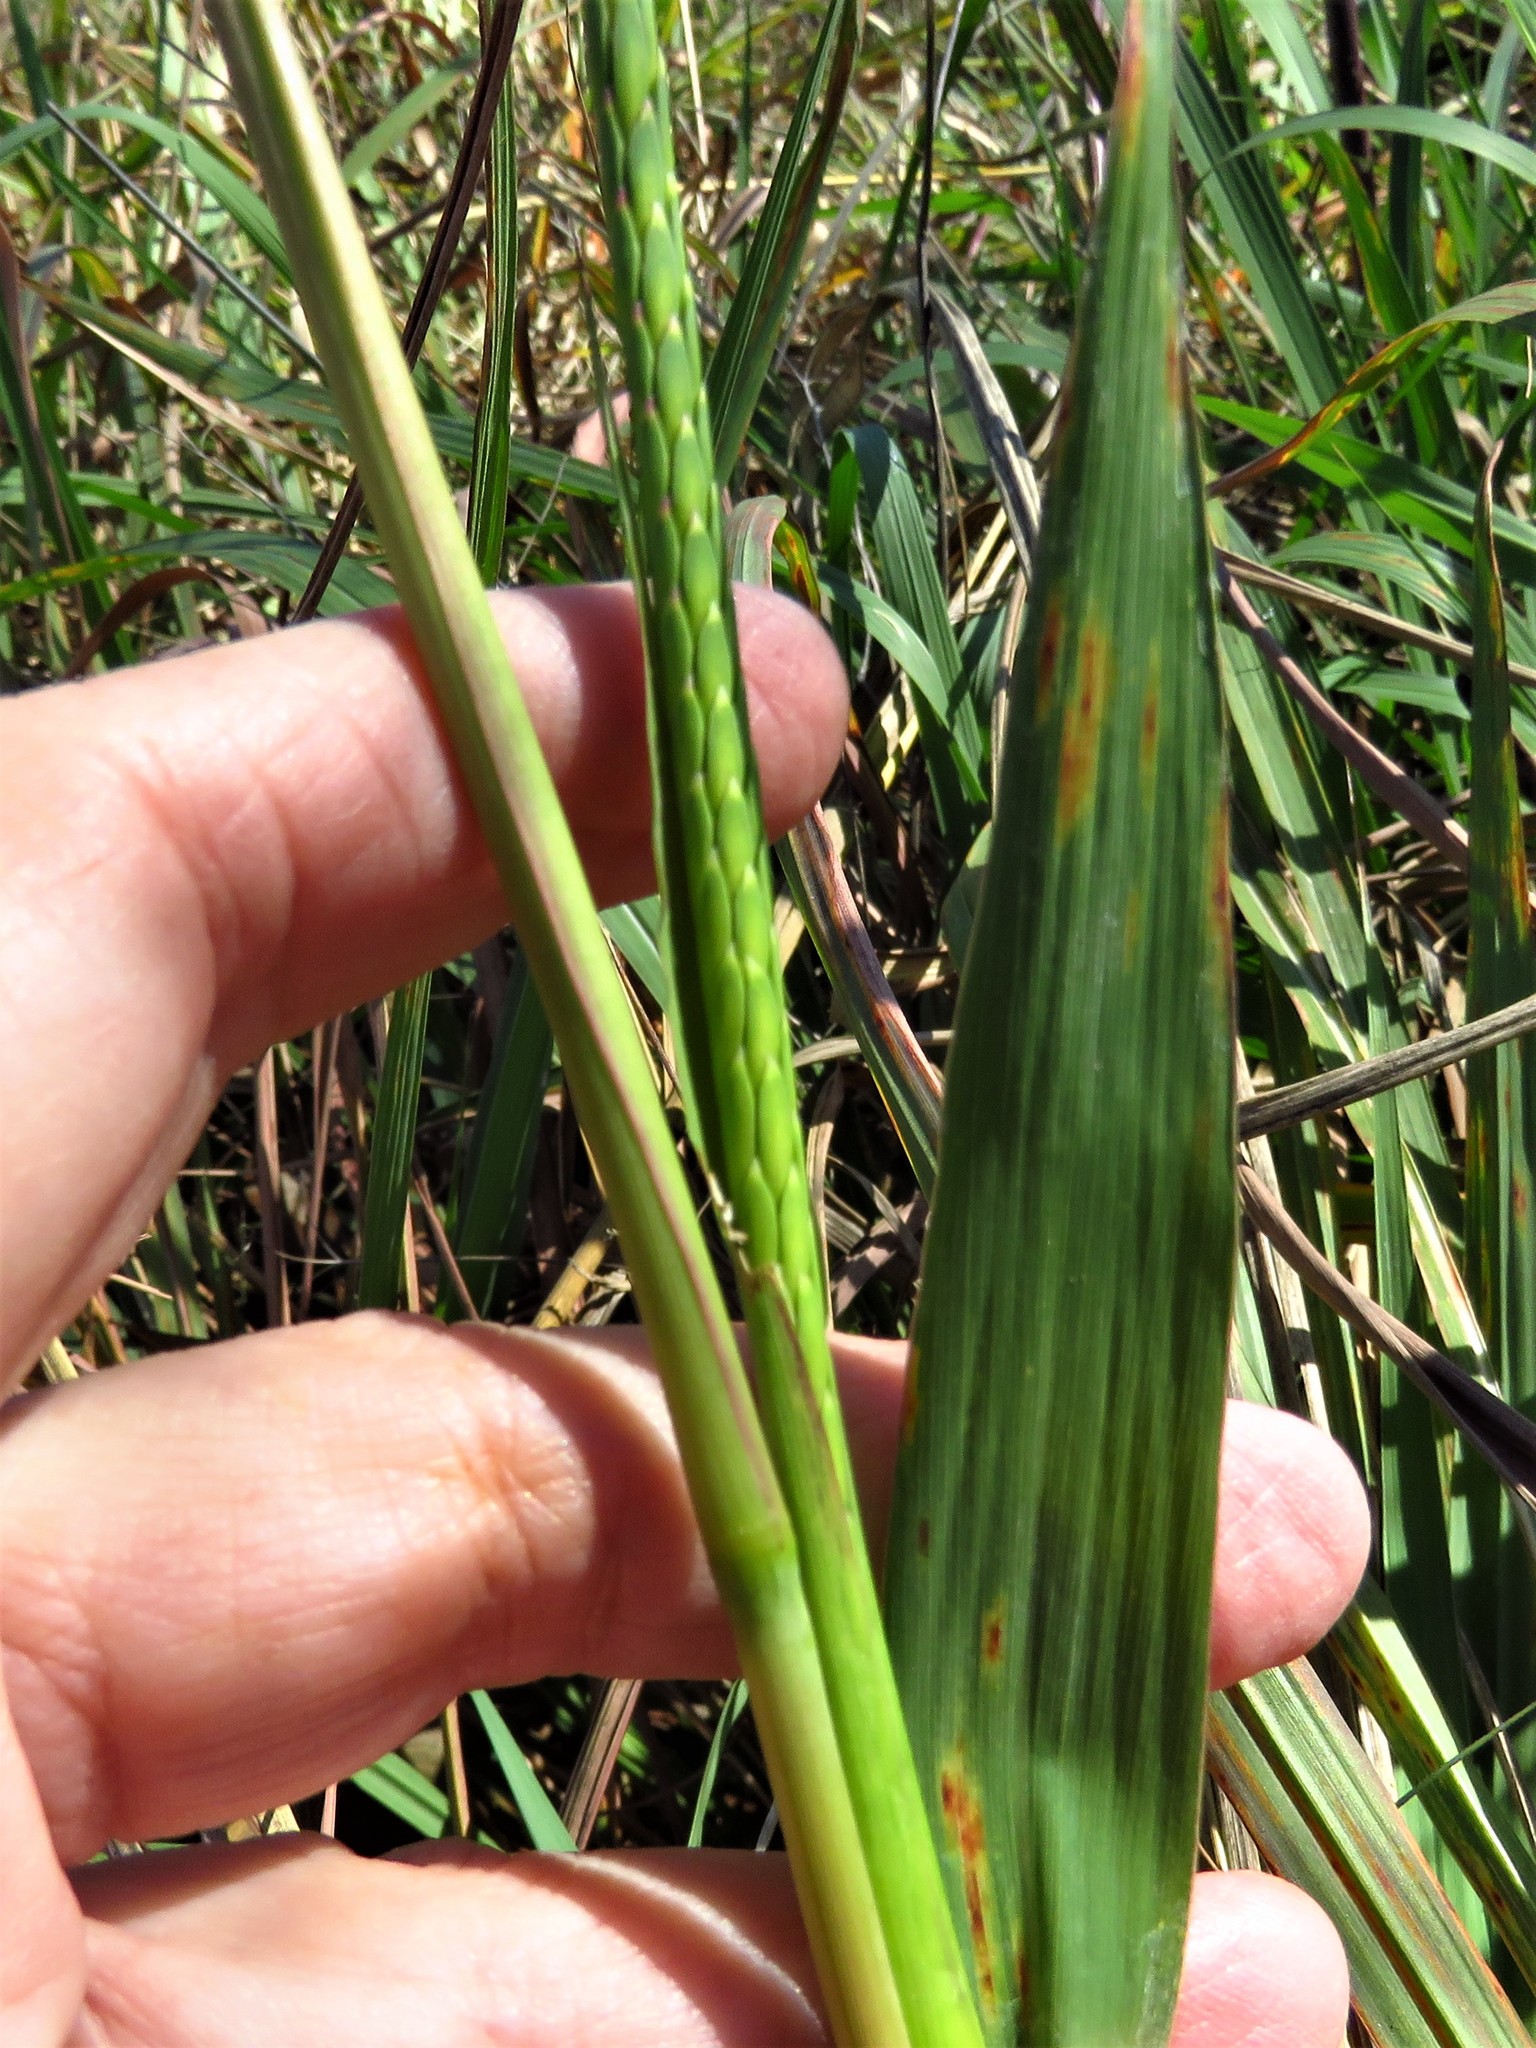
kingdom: Plantae
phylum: Tracheophyta
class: Liliopsida
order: Poales
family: Poaceae
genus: Tripsacum
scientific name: Tripsacum dactyloides
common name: Buffalo-grass
